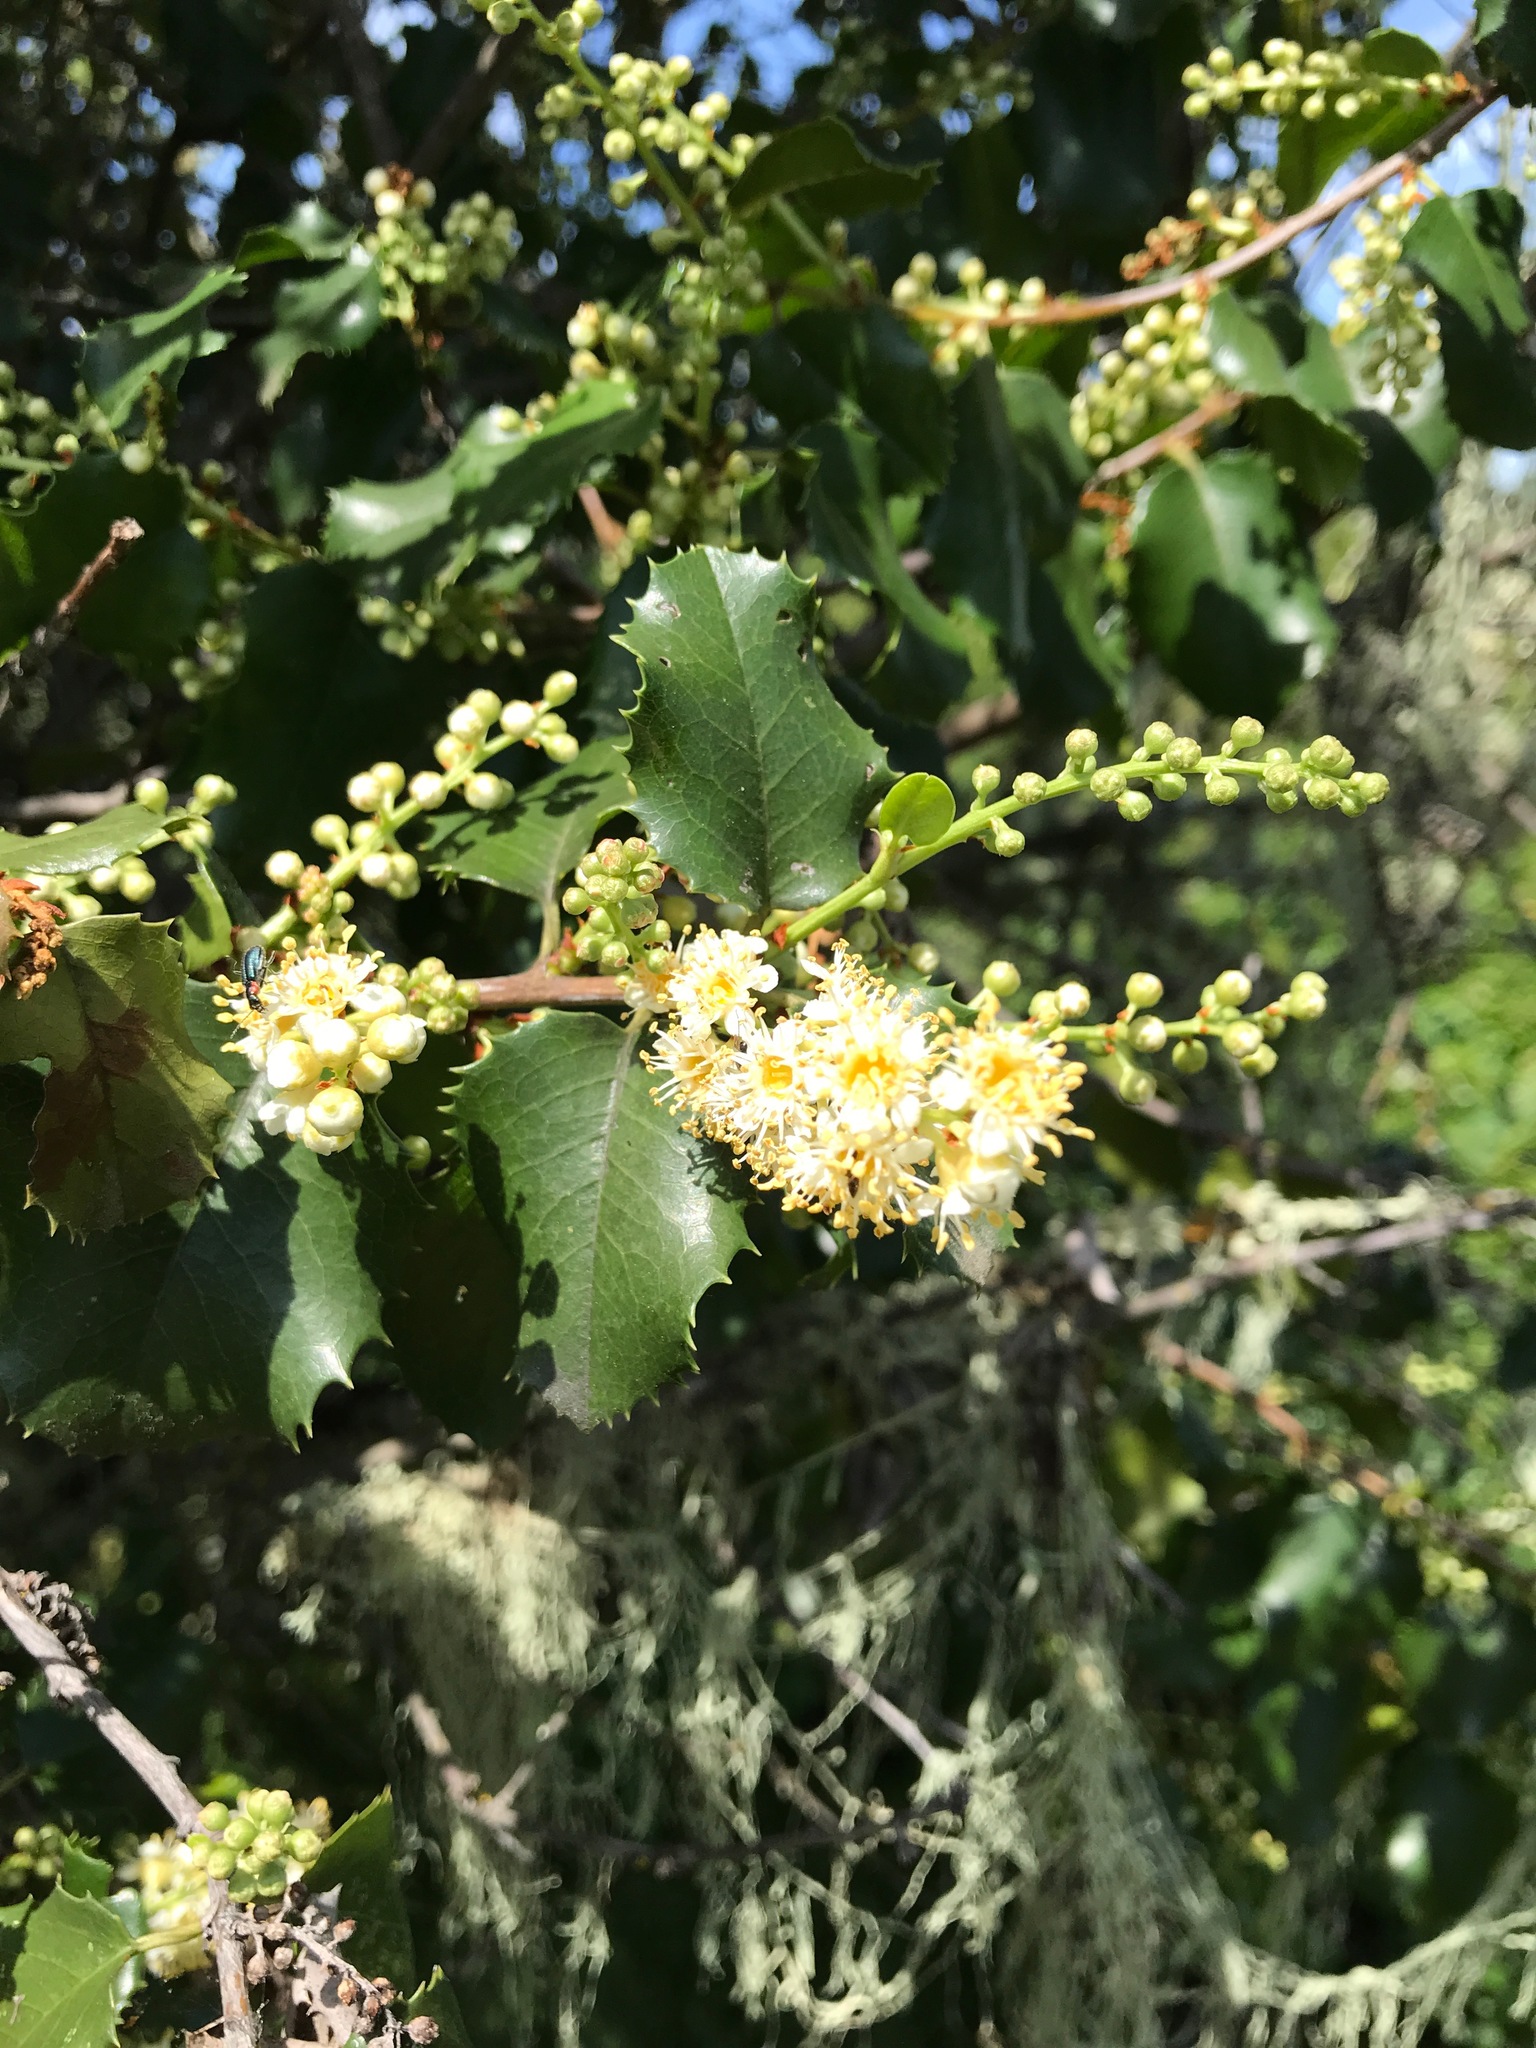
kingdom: Plantae
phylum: Tracheophyta
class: Magnoliopsida
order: Rosales
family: Rosaceae
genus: Prunus
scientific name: Prunus ilicifolia
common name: Hollyleaf cherry
